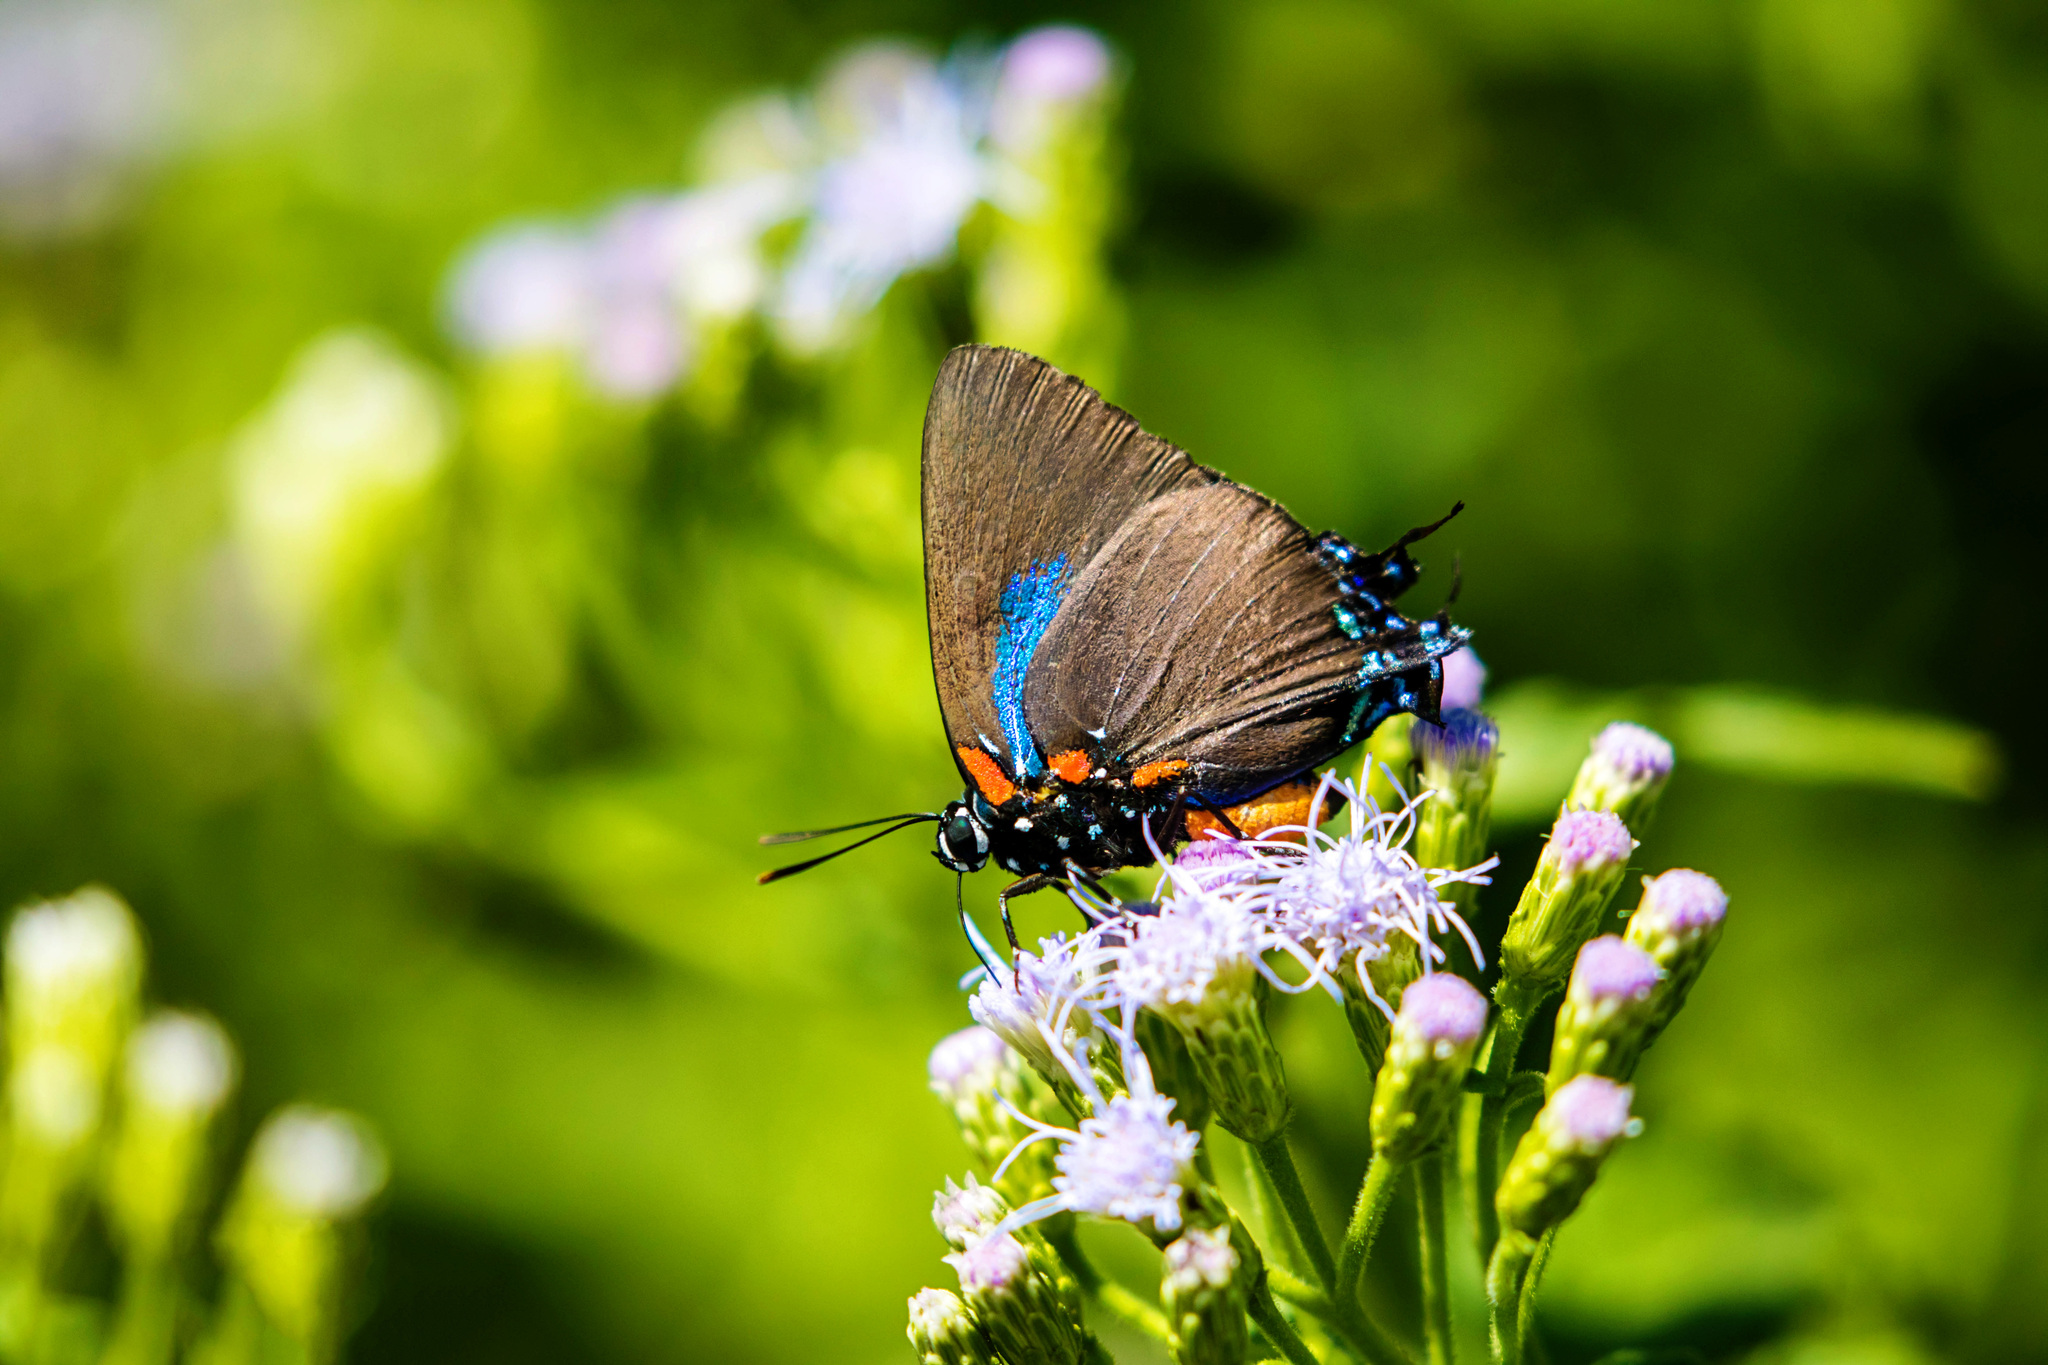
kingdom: Animalia
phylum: Arthropoda
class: Insecta
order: Lepidoptera
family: Lycaenidae
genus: Atlides
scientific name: Atlides halesus
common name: Great purple hairstreak
